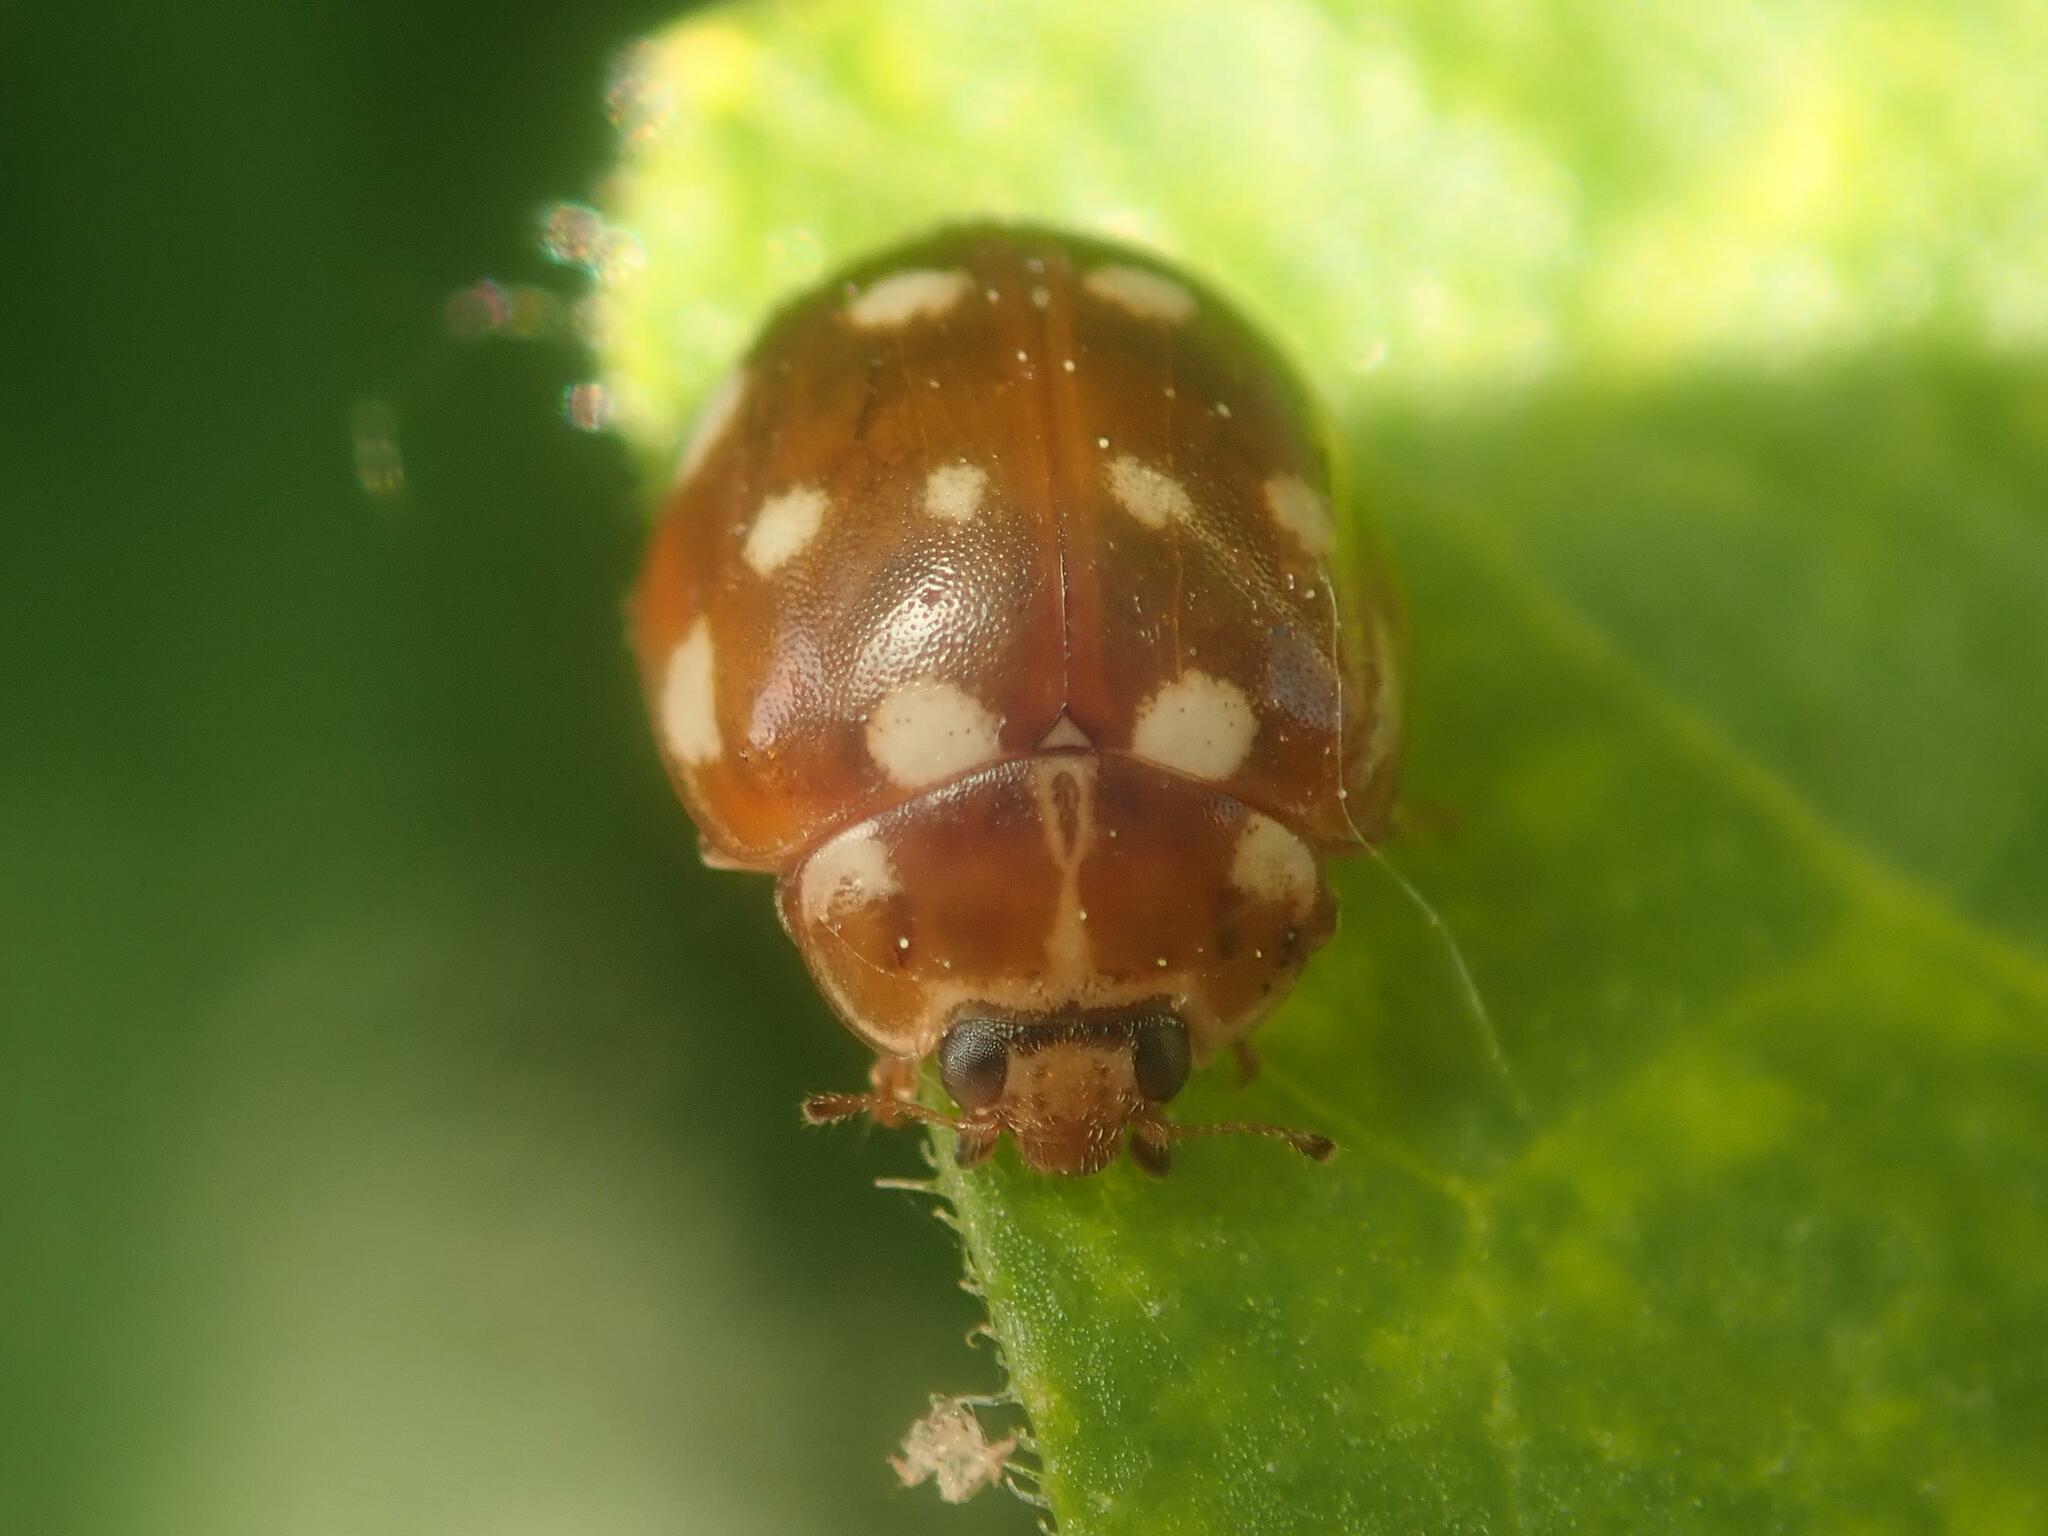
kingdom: Animalia
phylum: Arthropoda
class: Insecta
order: Coleoptera
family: Coccinellidae
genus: Calvia
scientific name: Calvia quatuordecimguttata
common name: Cream-spot ladybird
